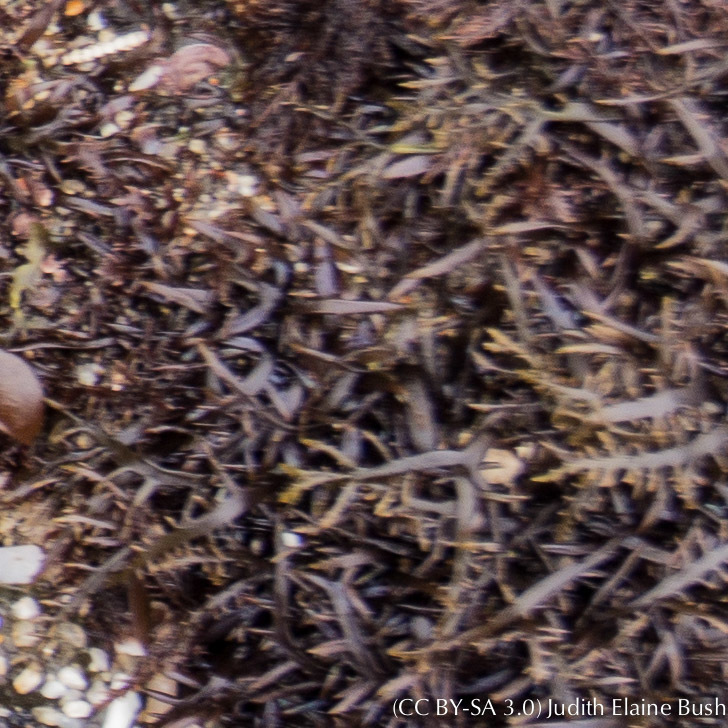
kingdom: Plantae
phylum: Rhodophyta
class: Florideophyceae
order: Halymeniales
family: Halymeniaceae
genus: Grateloupia
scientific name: Grateloupia Prionitis lanceolata
